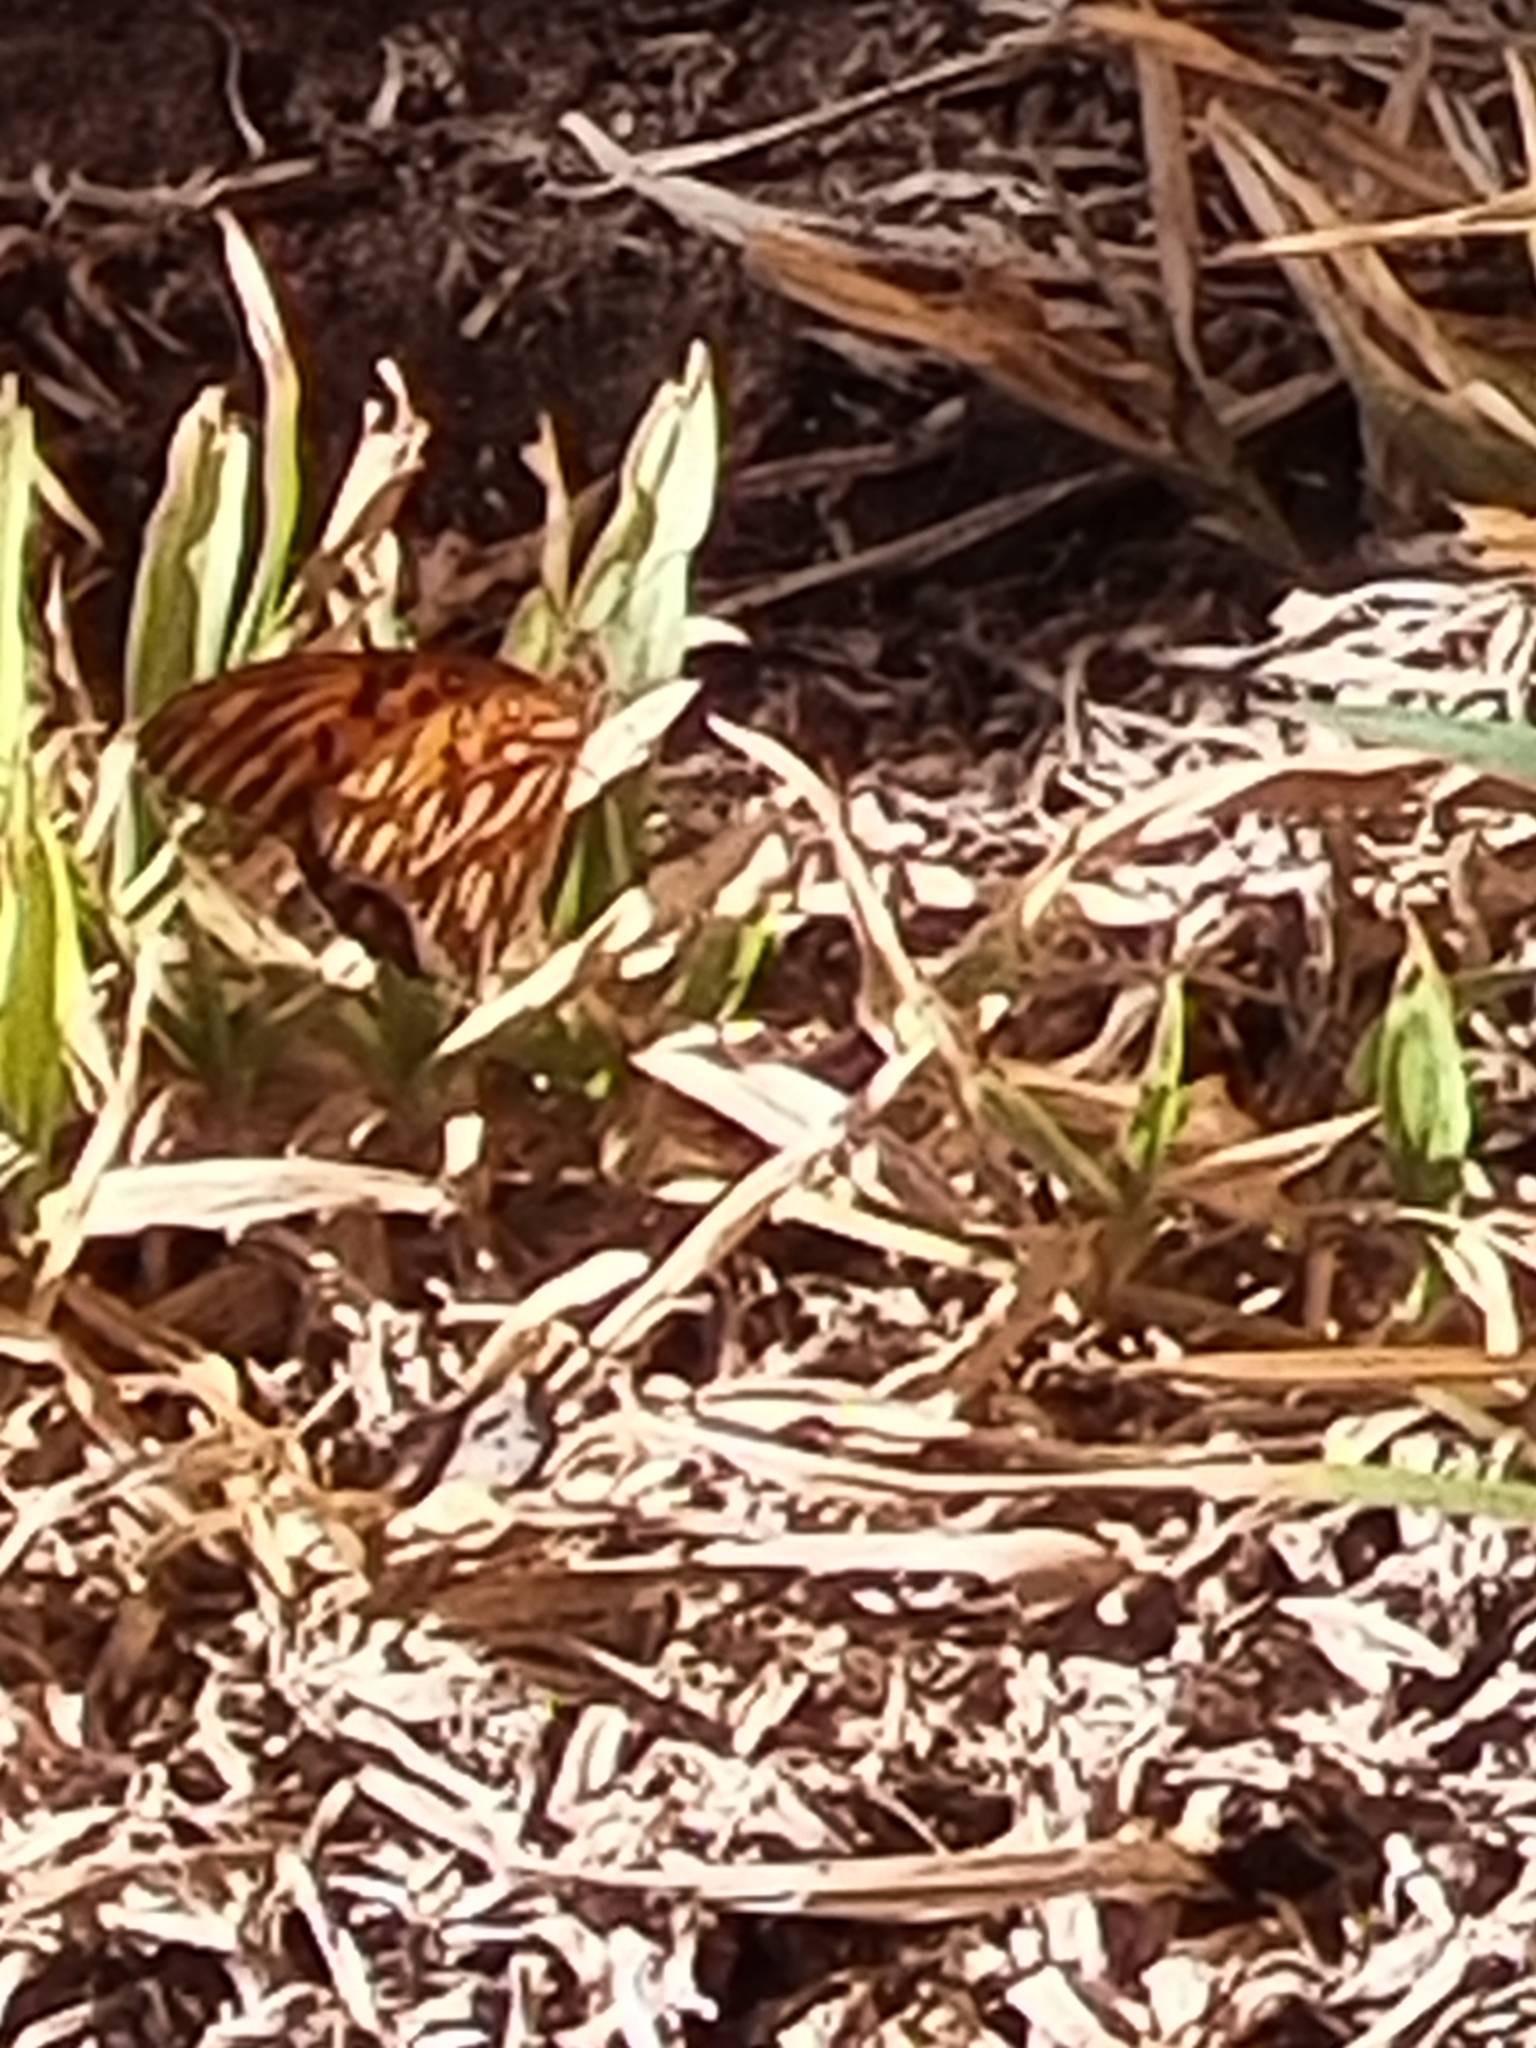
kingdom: Animalia
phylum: Arthropoda
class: Insecta
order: Lepidoptera
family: Nymphalidae
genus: Dione
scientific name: Dione vanillae
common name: Gulf fritillary
